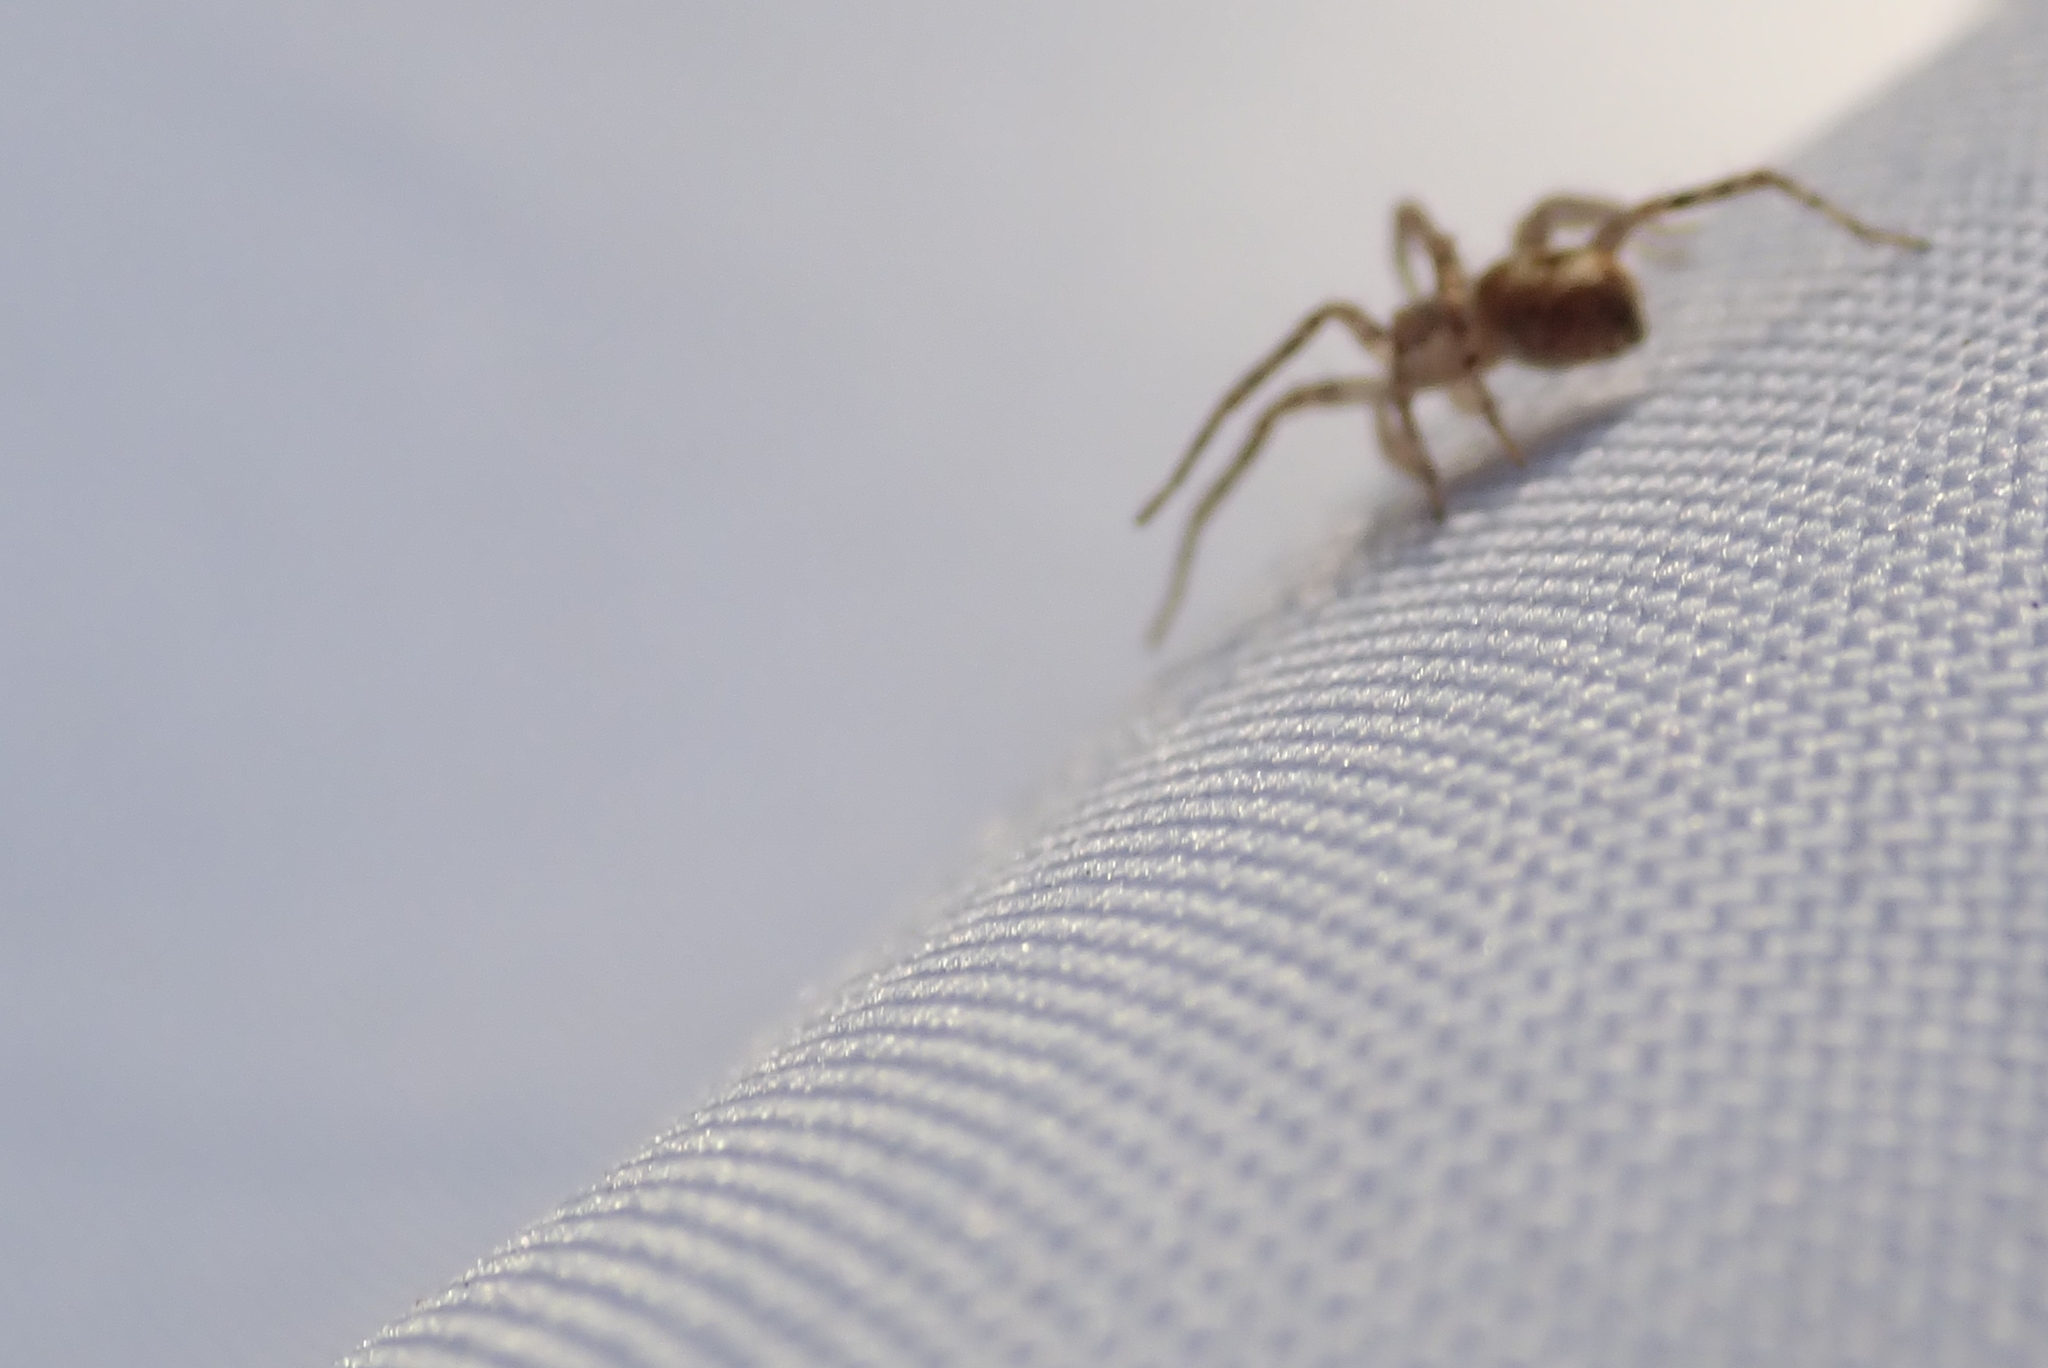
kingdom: Animalia
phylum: Arthropoda
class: Arachnida
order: Araneae
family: Anyphaenidae
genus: Anyphaena
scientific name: Anyphaena accentuata
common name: Buzzing spider
